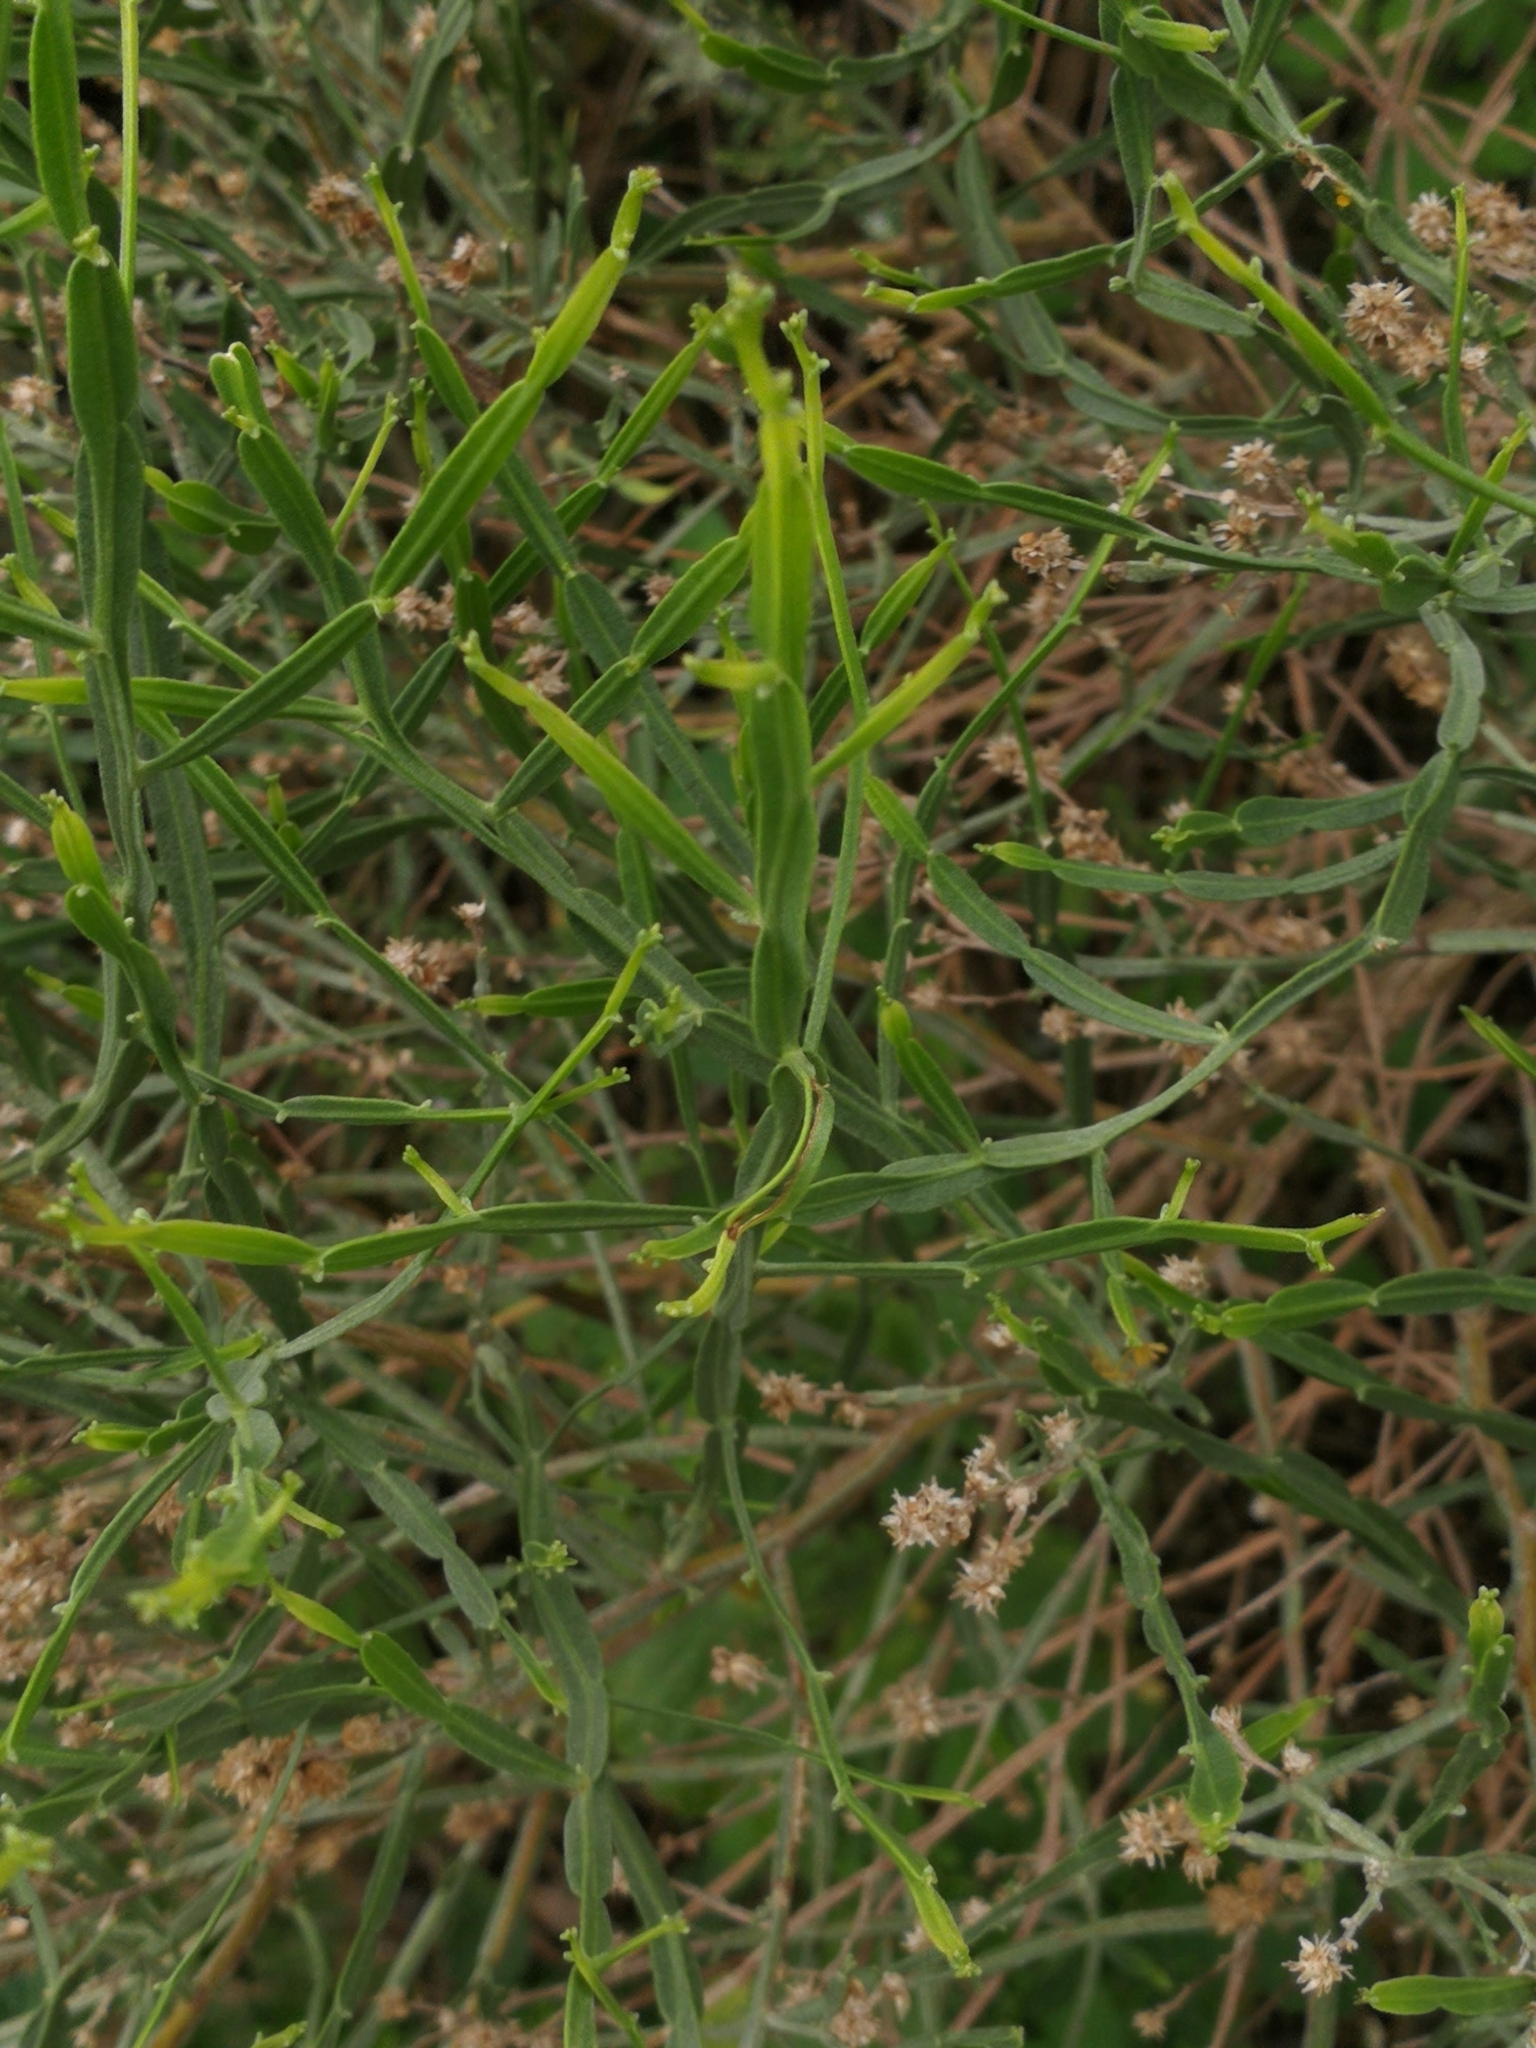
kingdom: Plantae
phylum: Tracheophyta
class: Magnoliopsida
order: Asterales
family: Asteraceae
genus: Baccharis
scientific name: Baccharis articulata
